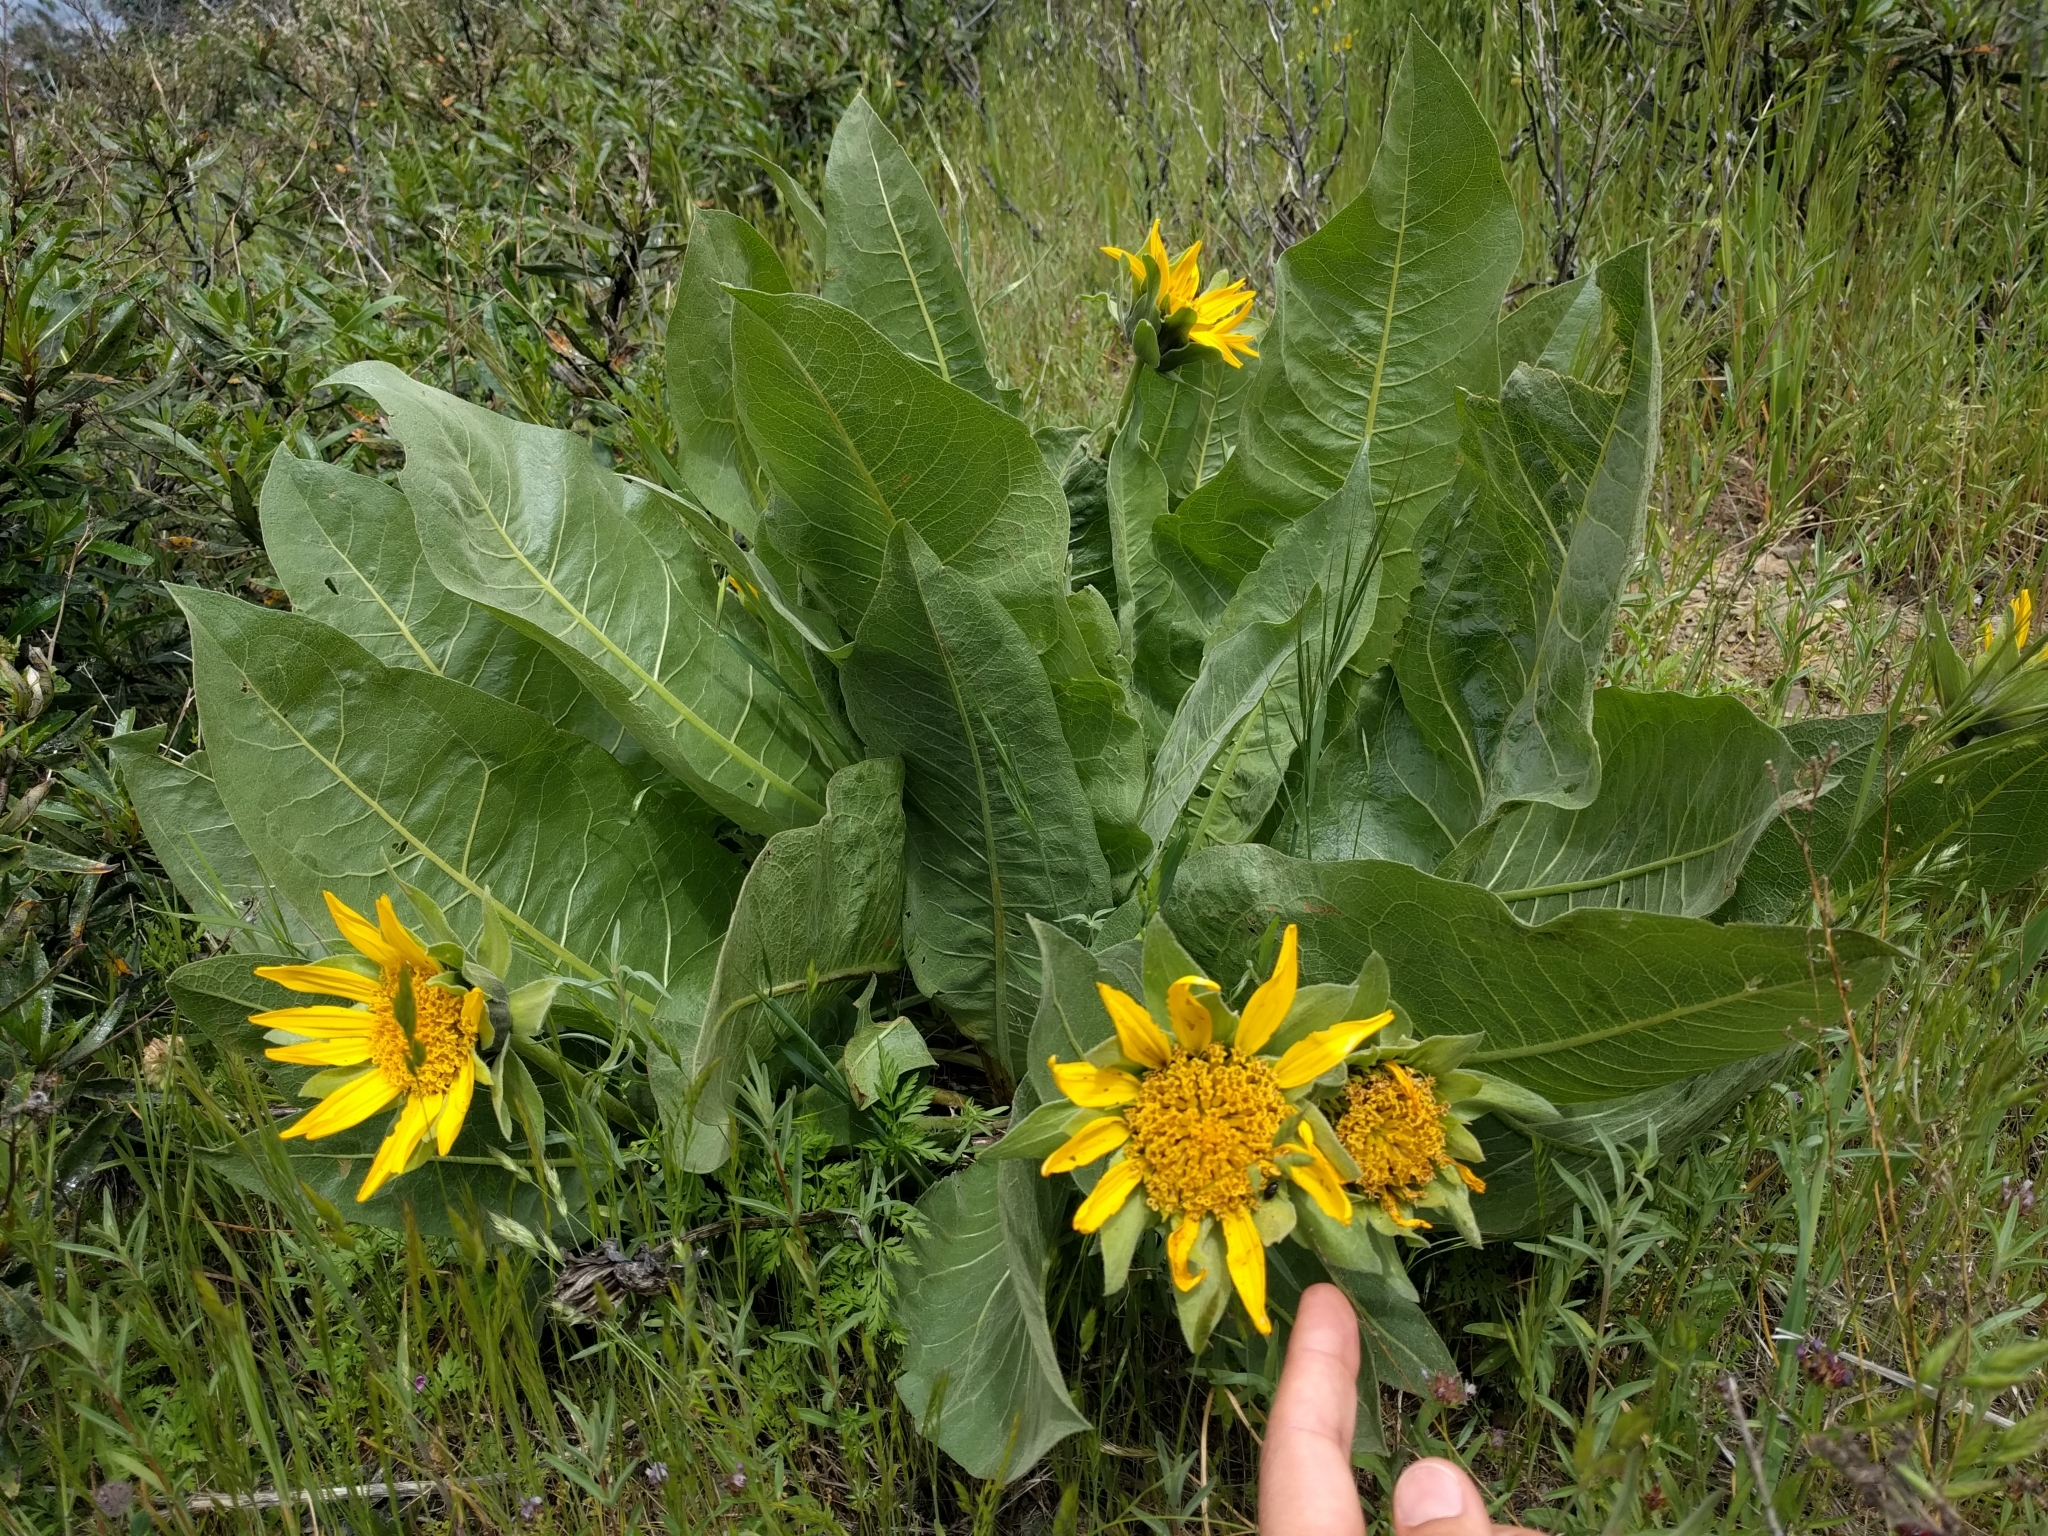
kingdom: Plantae
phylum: Tracheophyta
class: Magnoliopsida
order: Asterales
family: Asteraceae
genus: Wyethia
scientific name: Wyethia glabra
